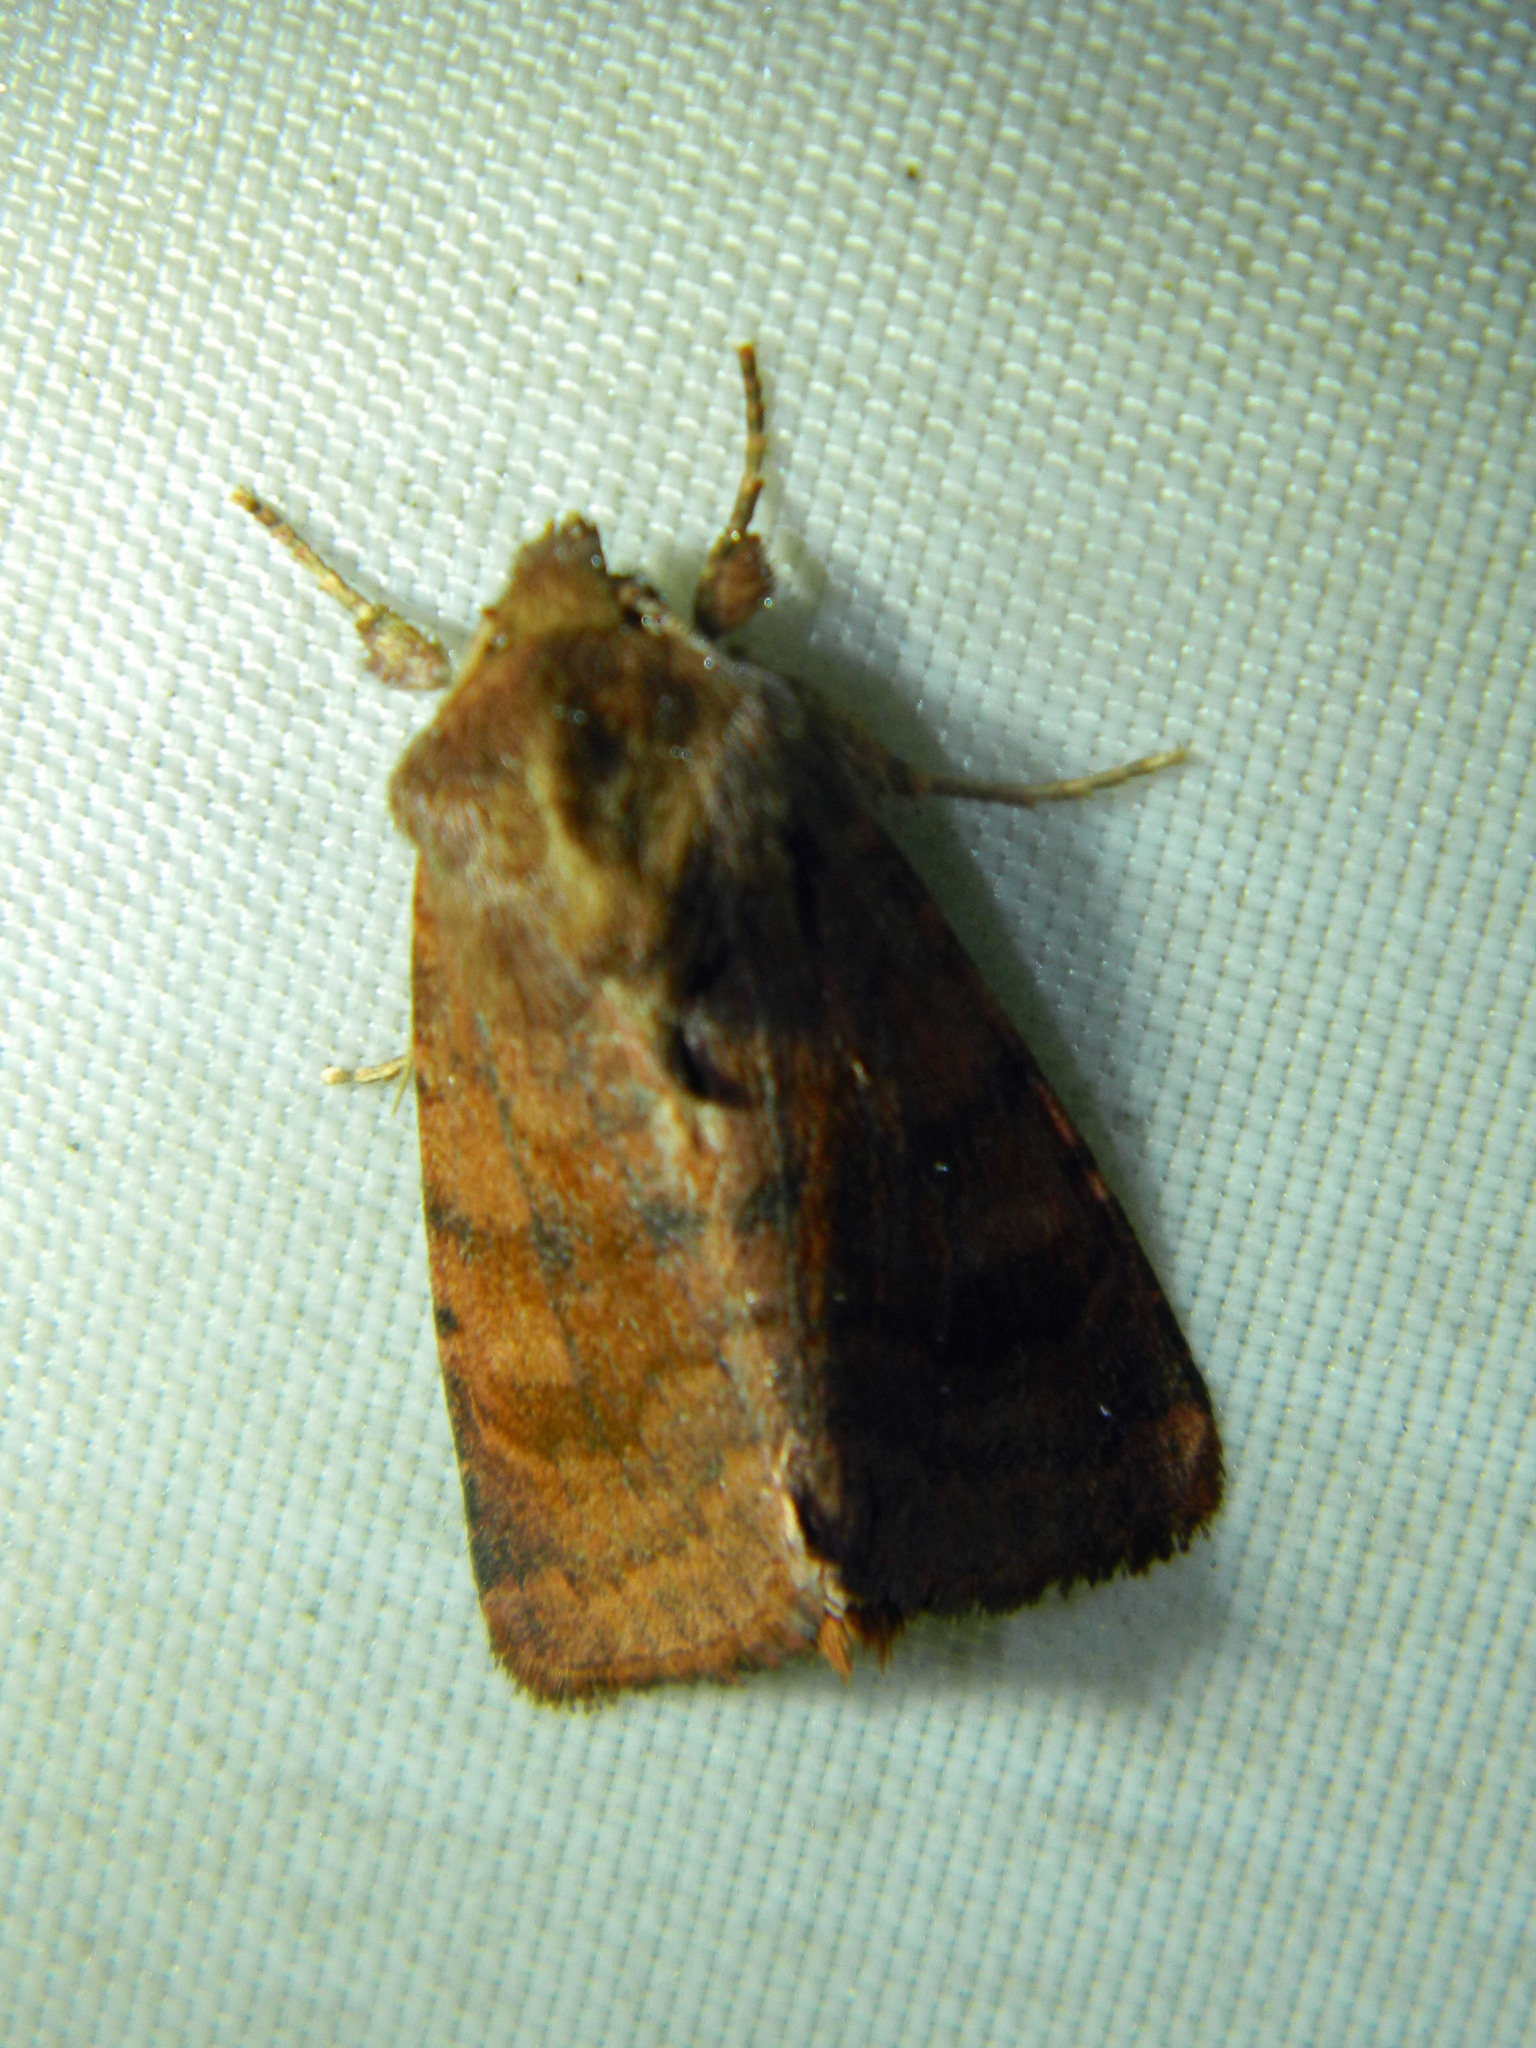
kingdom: Animalia
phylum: Arthropoda
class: Insecta
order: Lepidoptera
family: Noctuidae
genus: Nephelodes
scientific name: Nephelodes minians
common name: Bronzed cutworm
